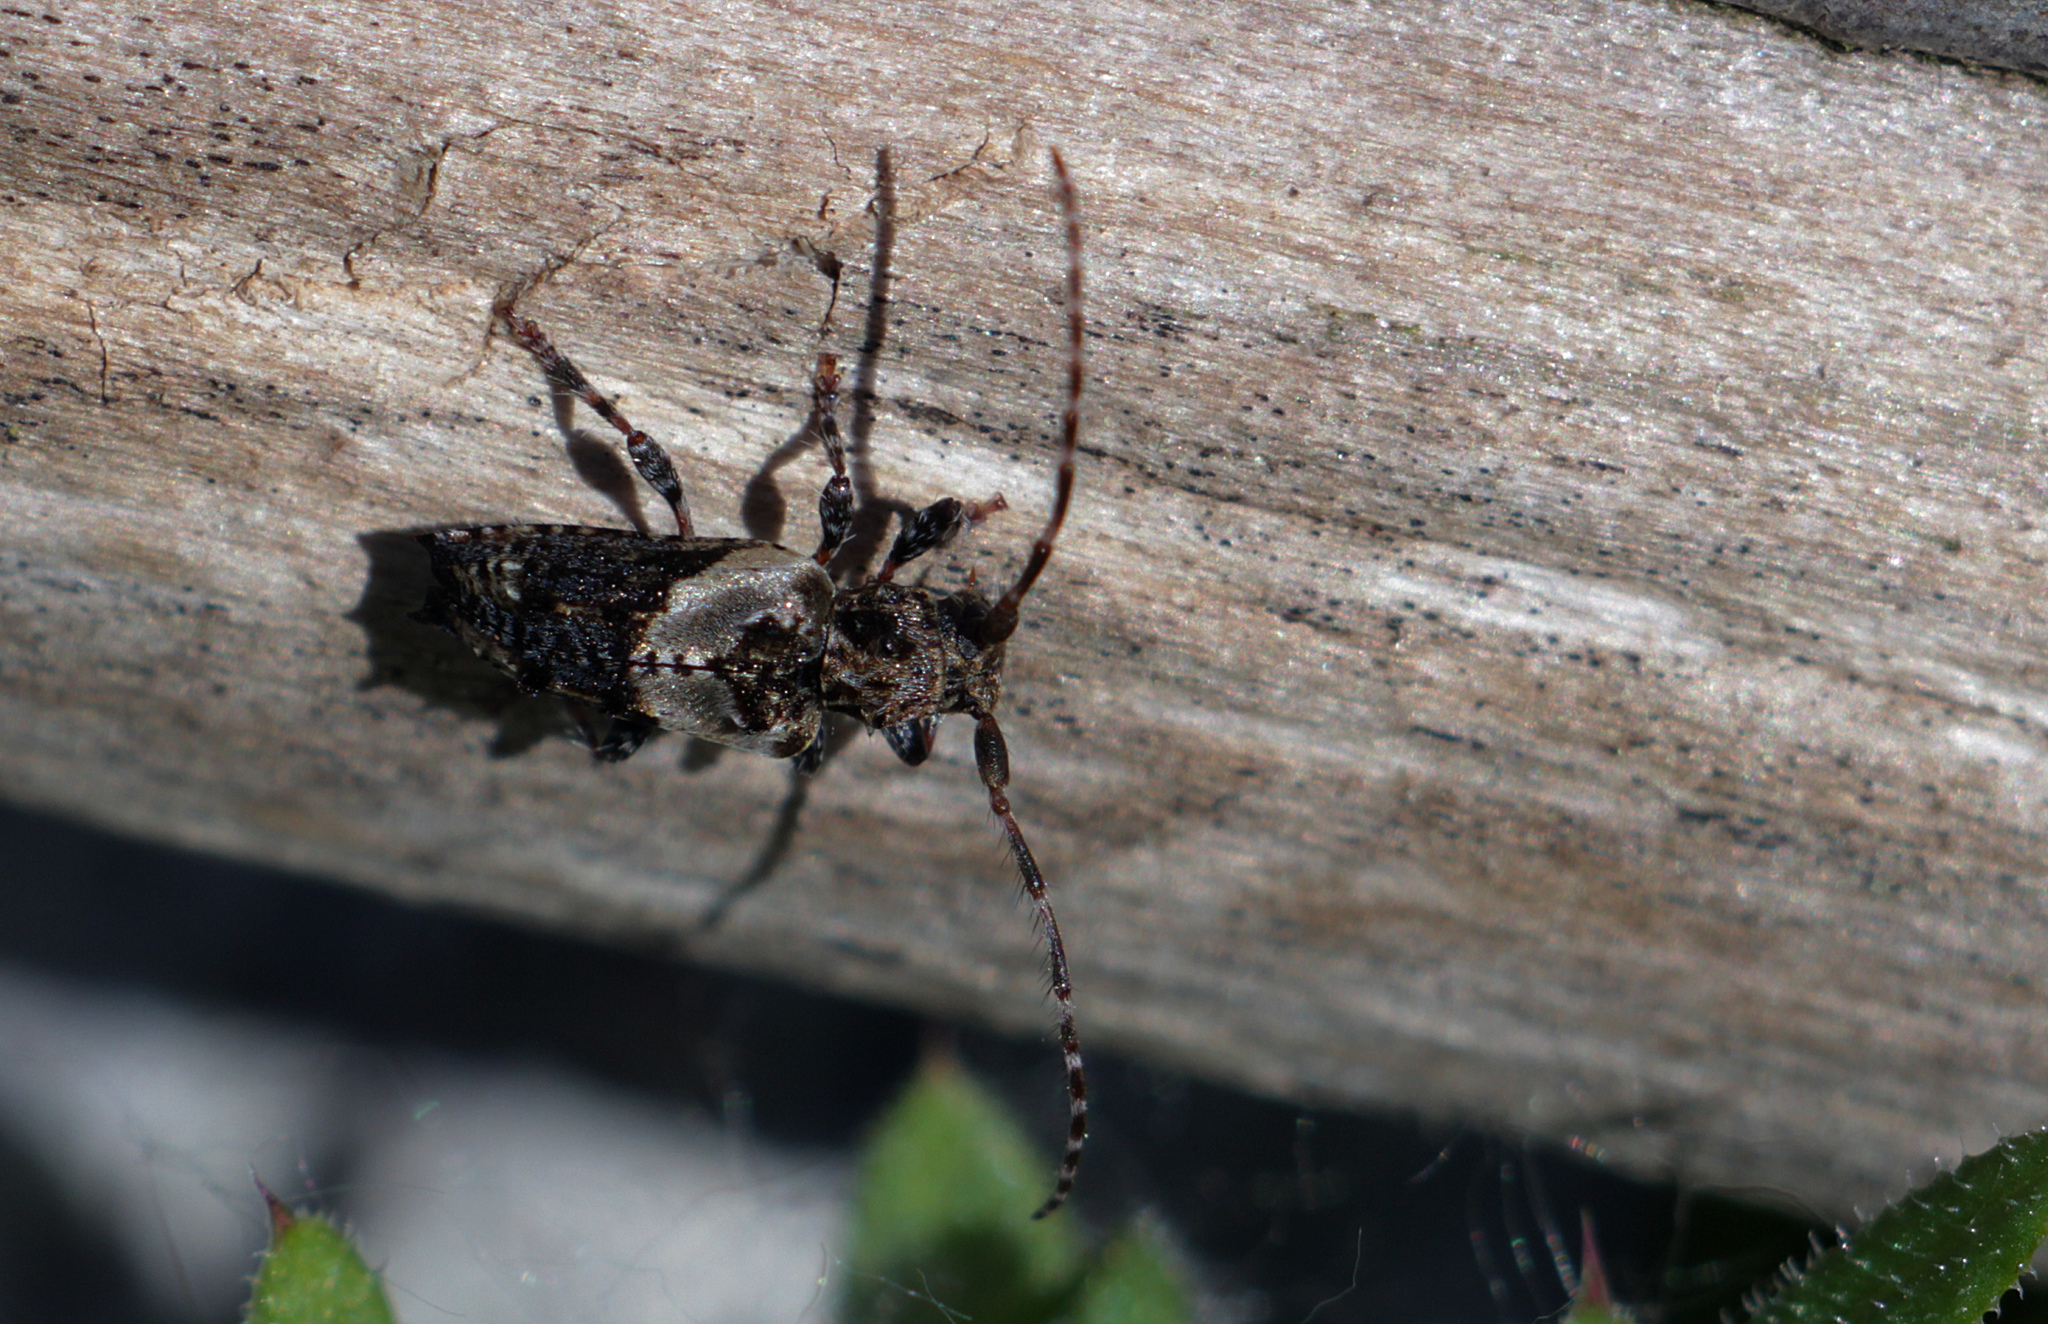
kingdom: Animalia
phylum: Arthropoda
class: Insecta
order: Coleoptera
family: Cerambycidae
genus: Pogonocherus
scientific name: Pogonocherus hispidus
